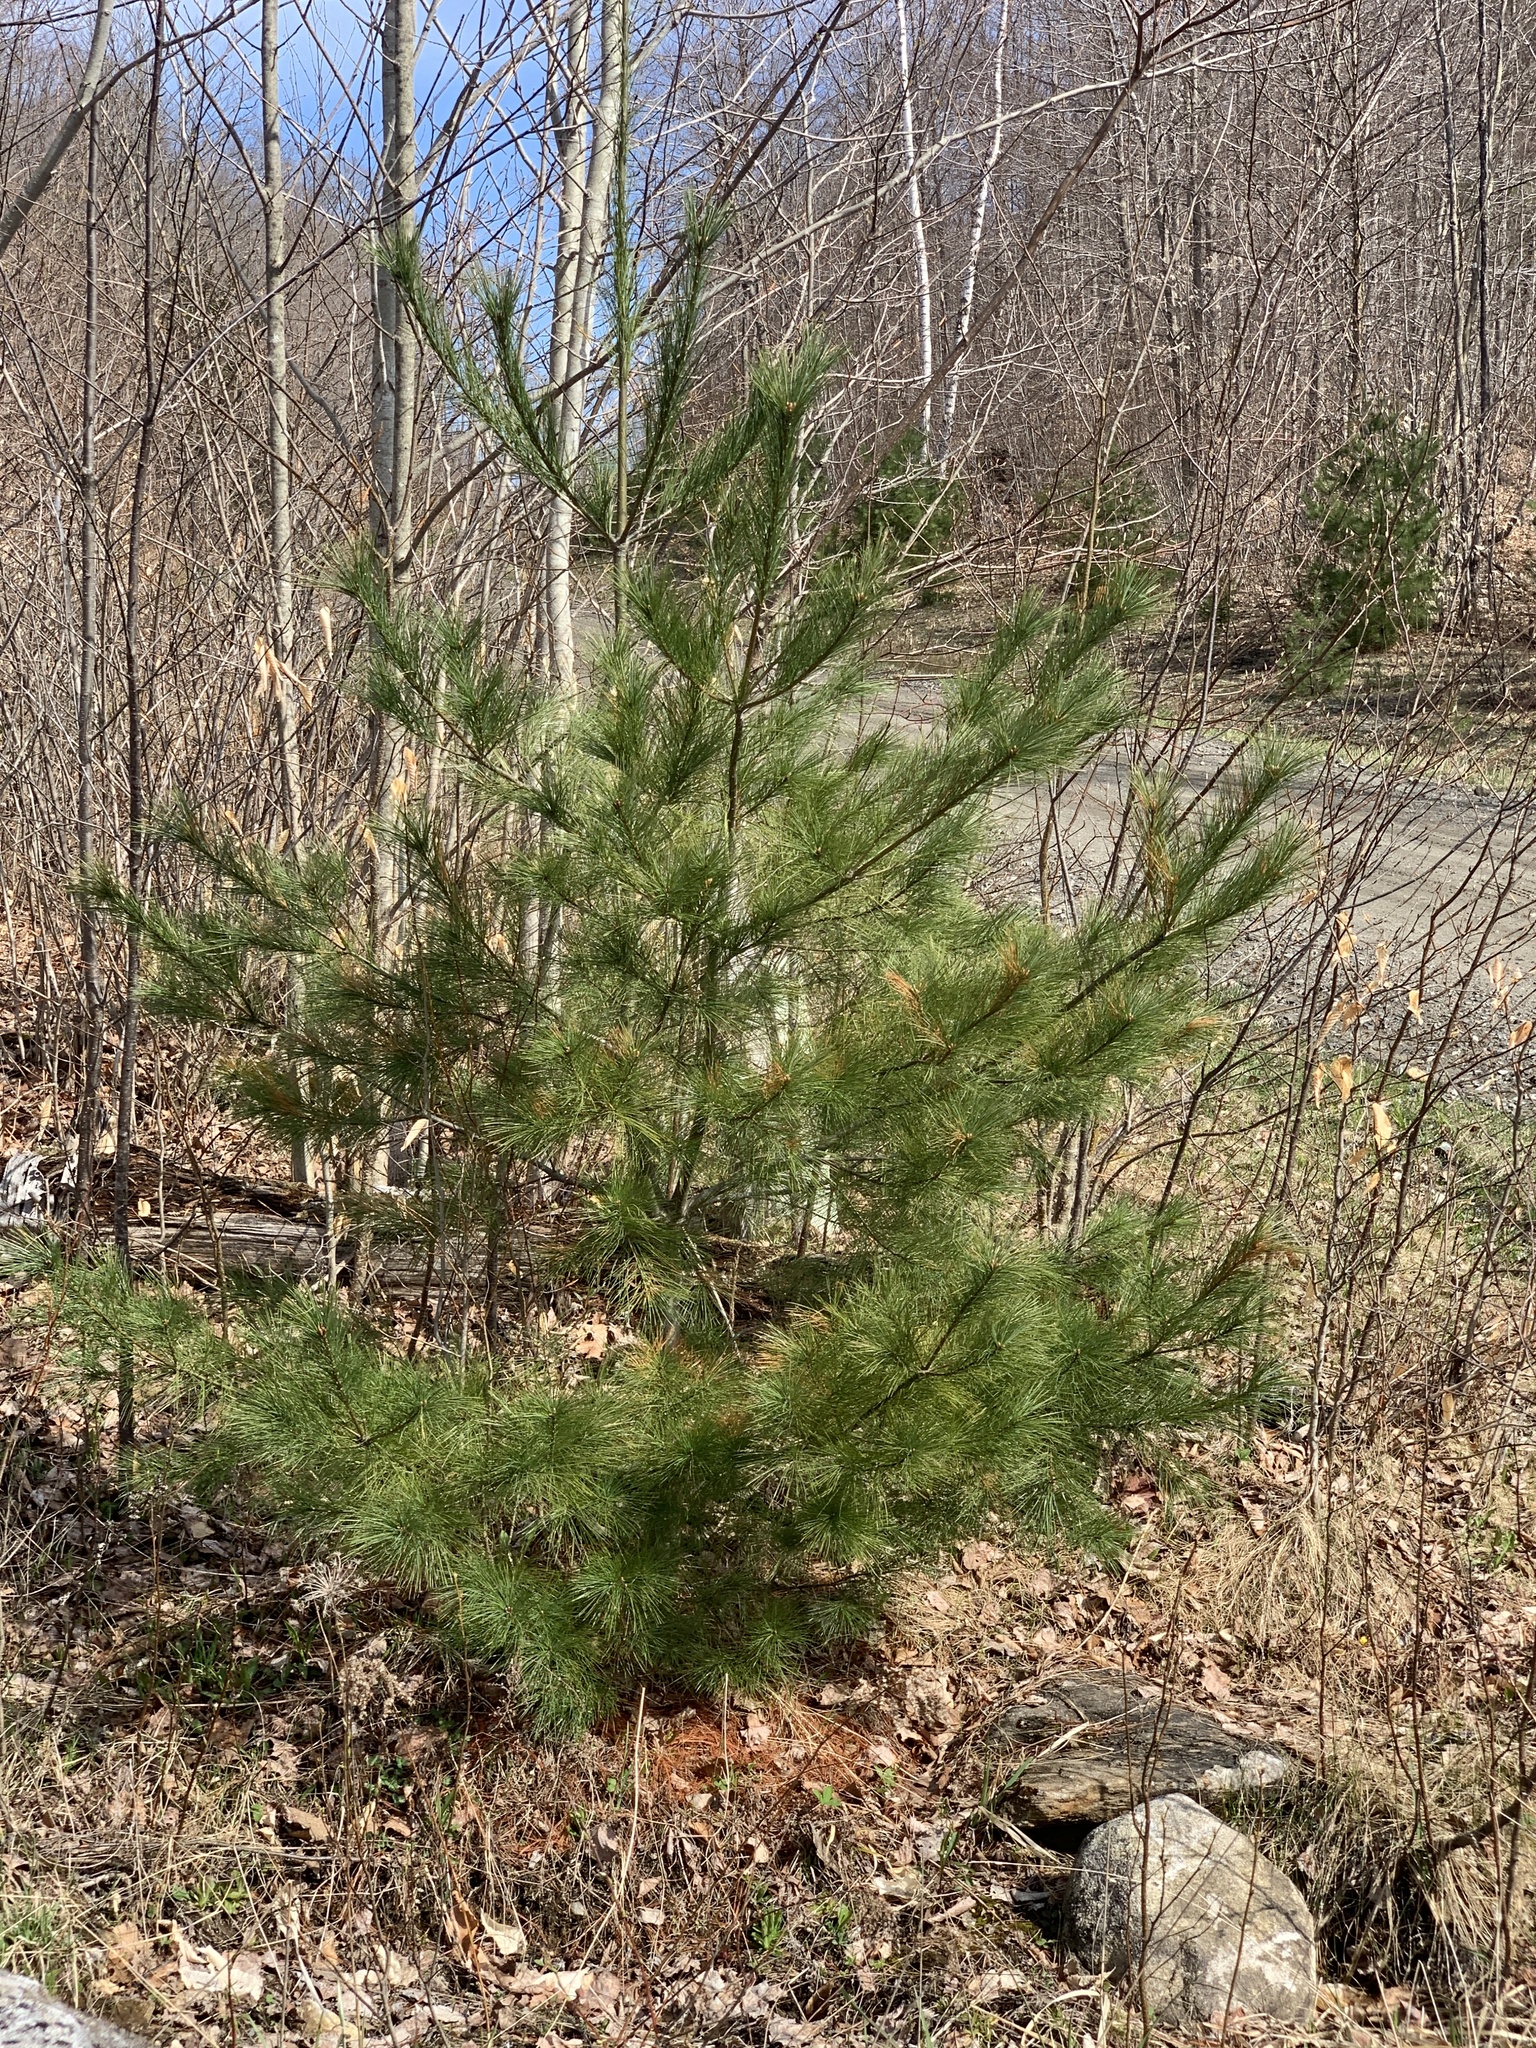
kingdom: Plantae
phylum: Tracheophyta
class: Pinopsida
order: Pinales
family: Pinaceae
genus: Pinus
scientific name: Pinus strobus
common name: Weymouth pine
